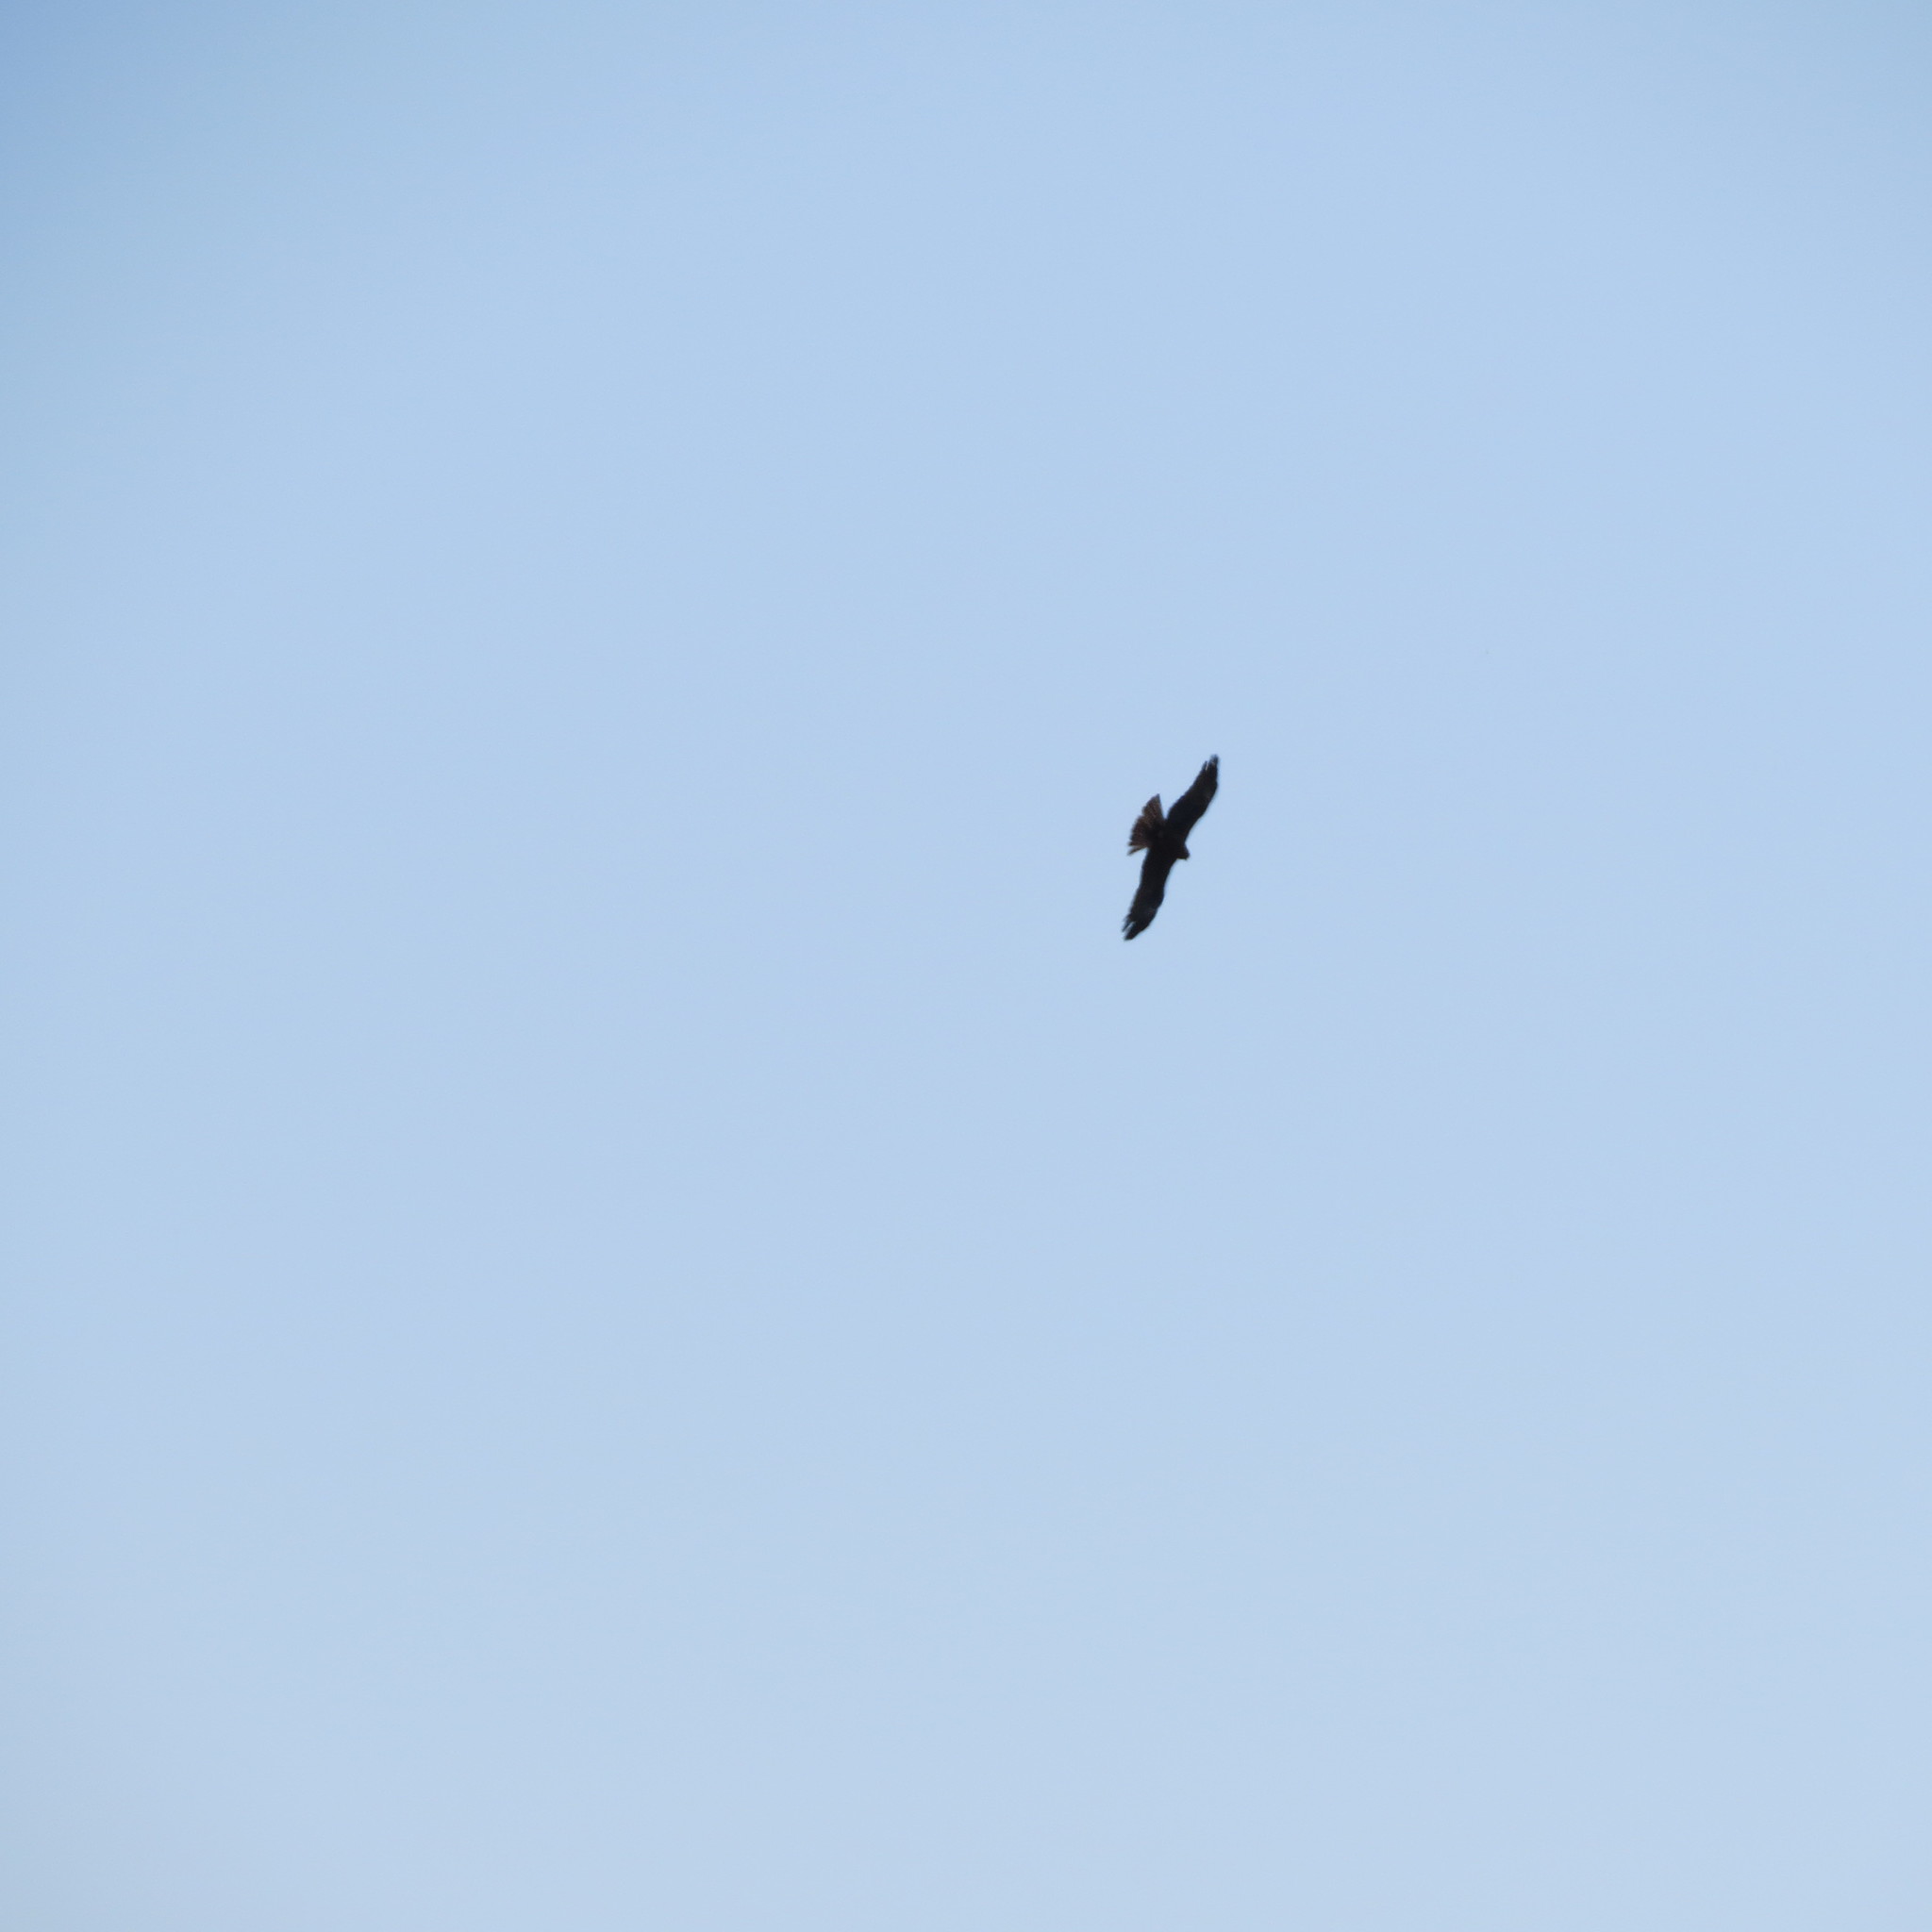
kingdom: Animalia
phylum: Chordata
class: Aves
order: Accipitriformes
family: Accipitridae
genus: Milvus
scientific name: Milvus migrans
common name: Black kite
